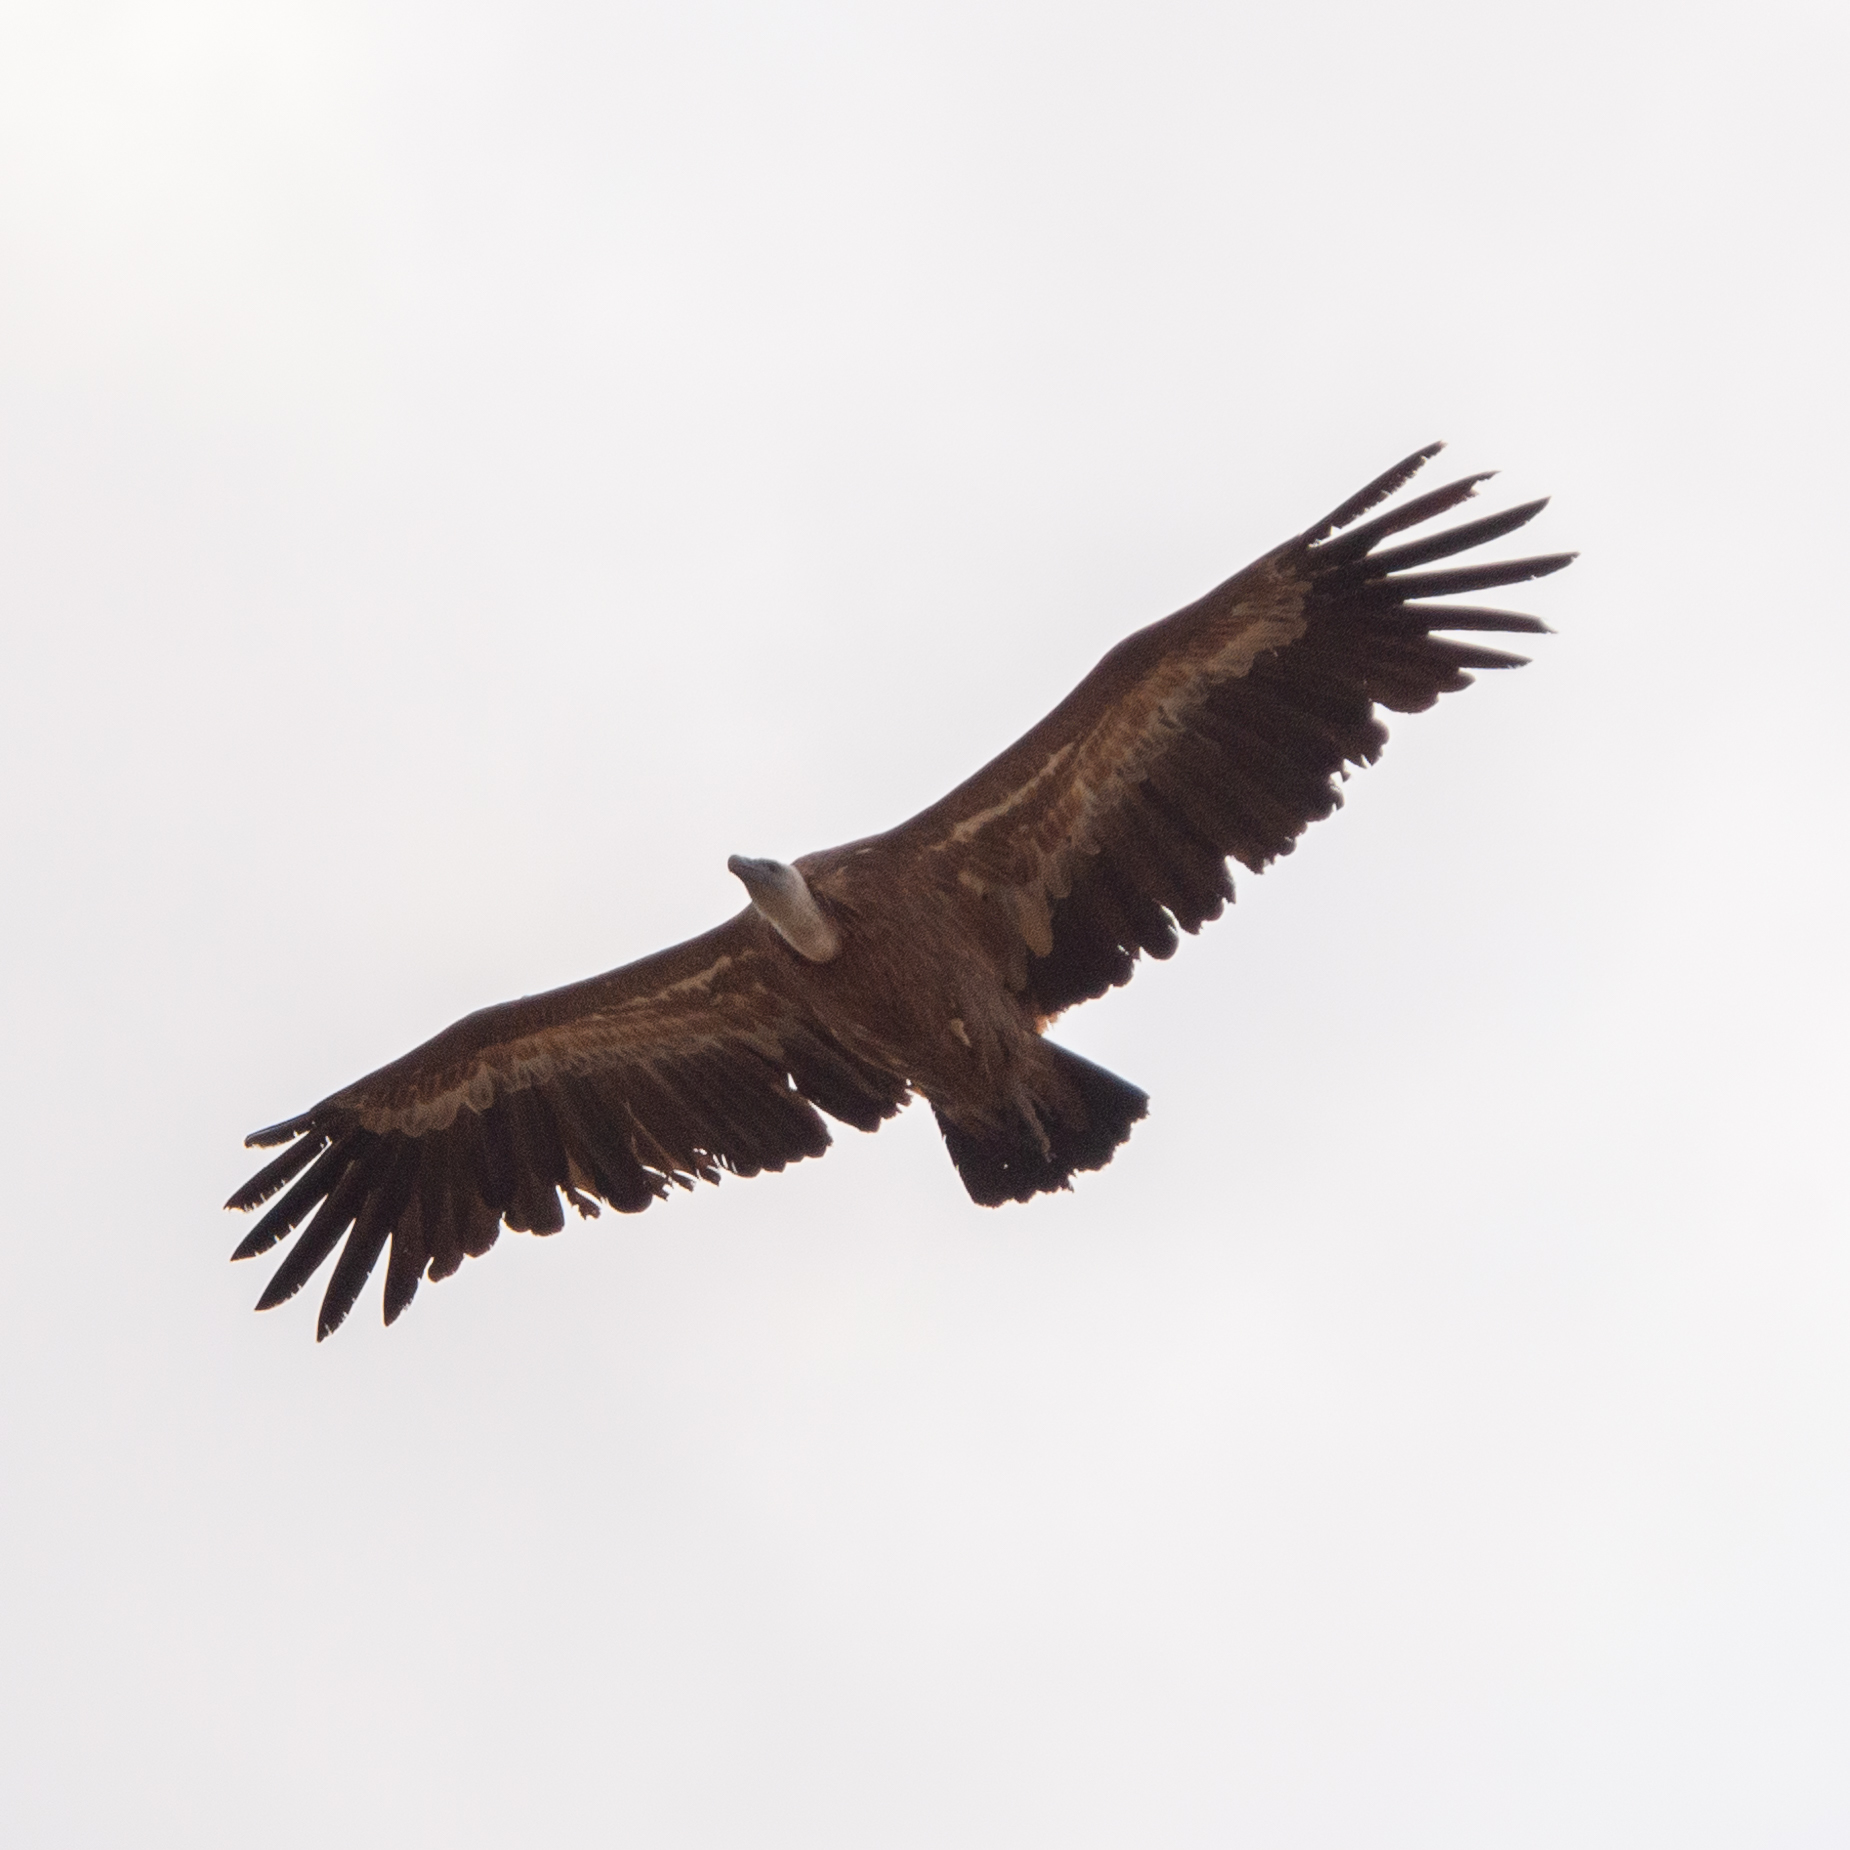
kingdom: Animalia
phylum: Chordata
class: Aves
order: Accipitriformes
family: Accipitridae
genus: Gyps
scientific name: Gyps fulvus
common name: Griffon vulture
